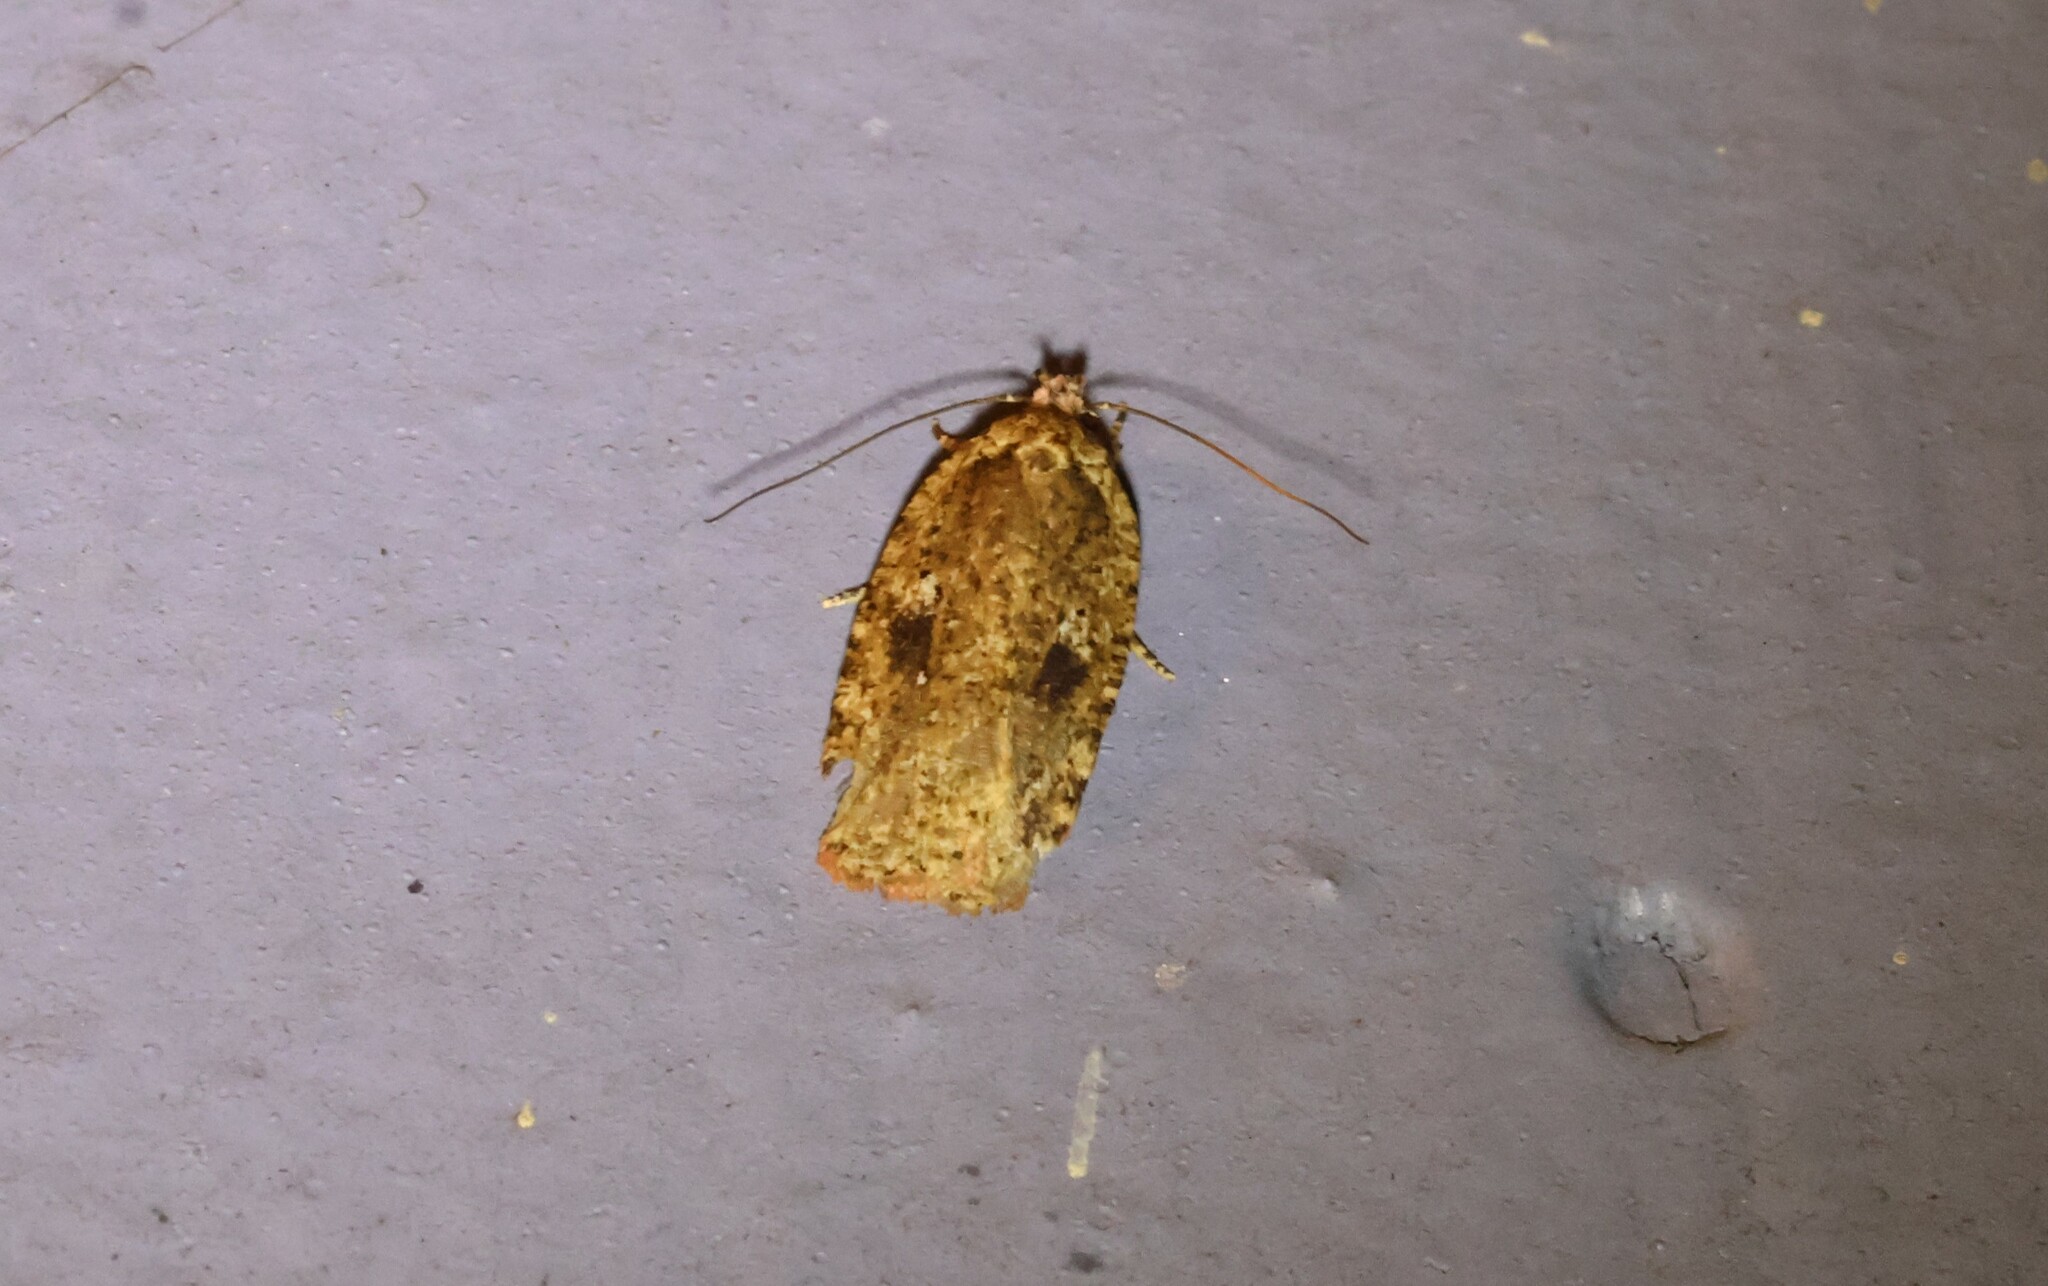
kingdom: Animalia
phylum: Arthropoda
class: Insecta
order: Lepidoptera
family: Depressariidae
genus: Agonopterix
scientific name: Agonopterix pulvipennella
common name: Goldenrod leafffolder
